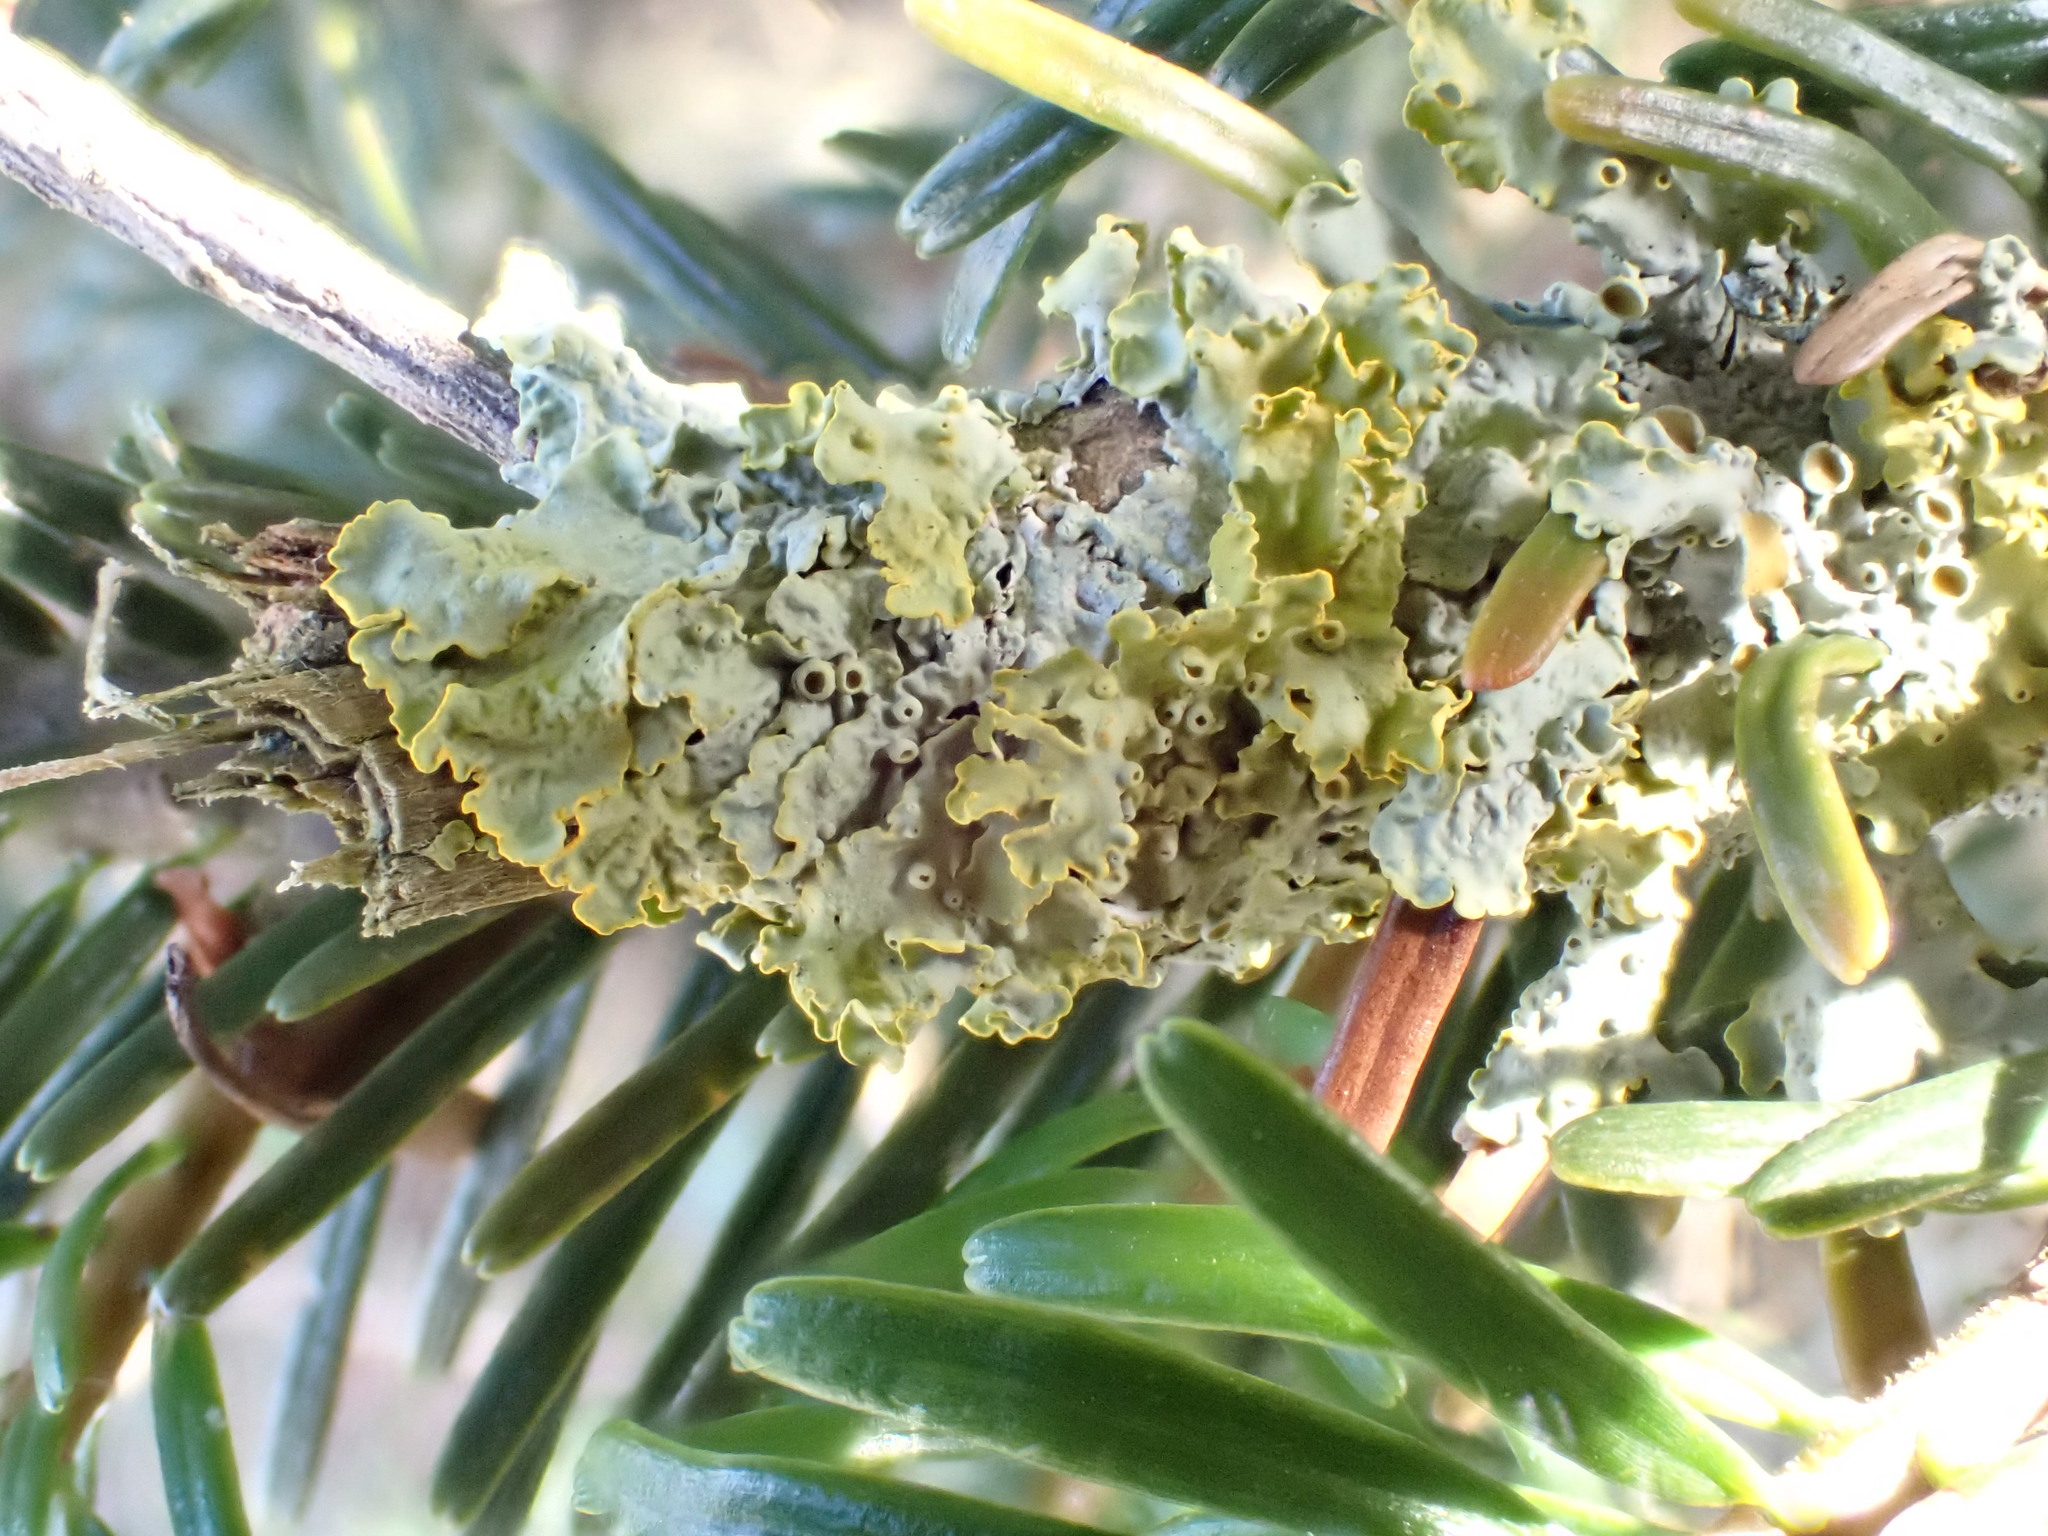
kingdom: Fungi
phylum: Ascomycota
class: Lecanoromycetes
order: Teloschistales
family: Teloschistaceae
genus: Xanthoria
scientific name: Xanthoria parietina
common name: Common orange lichen
